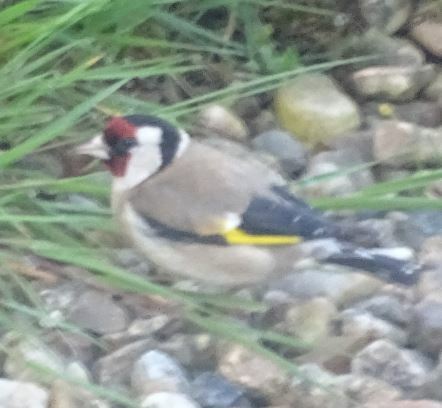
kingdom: Animalia
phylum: Chordata
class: Aves
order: Passeriformes
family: Fringillidae
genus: Carduelis
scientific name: Carduelis carduelis
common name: European goldfinch
